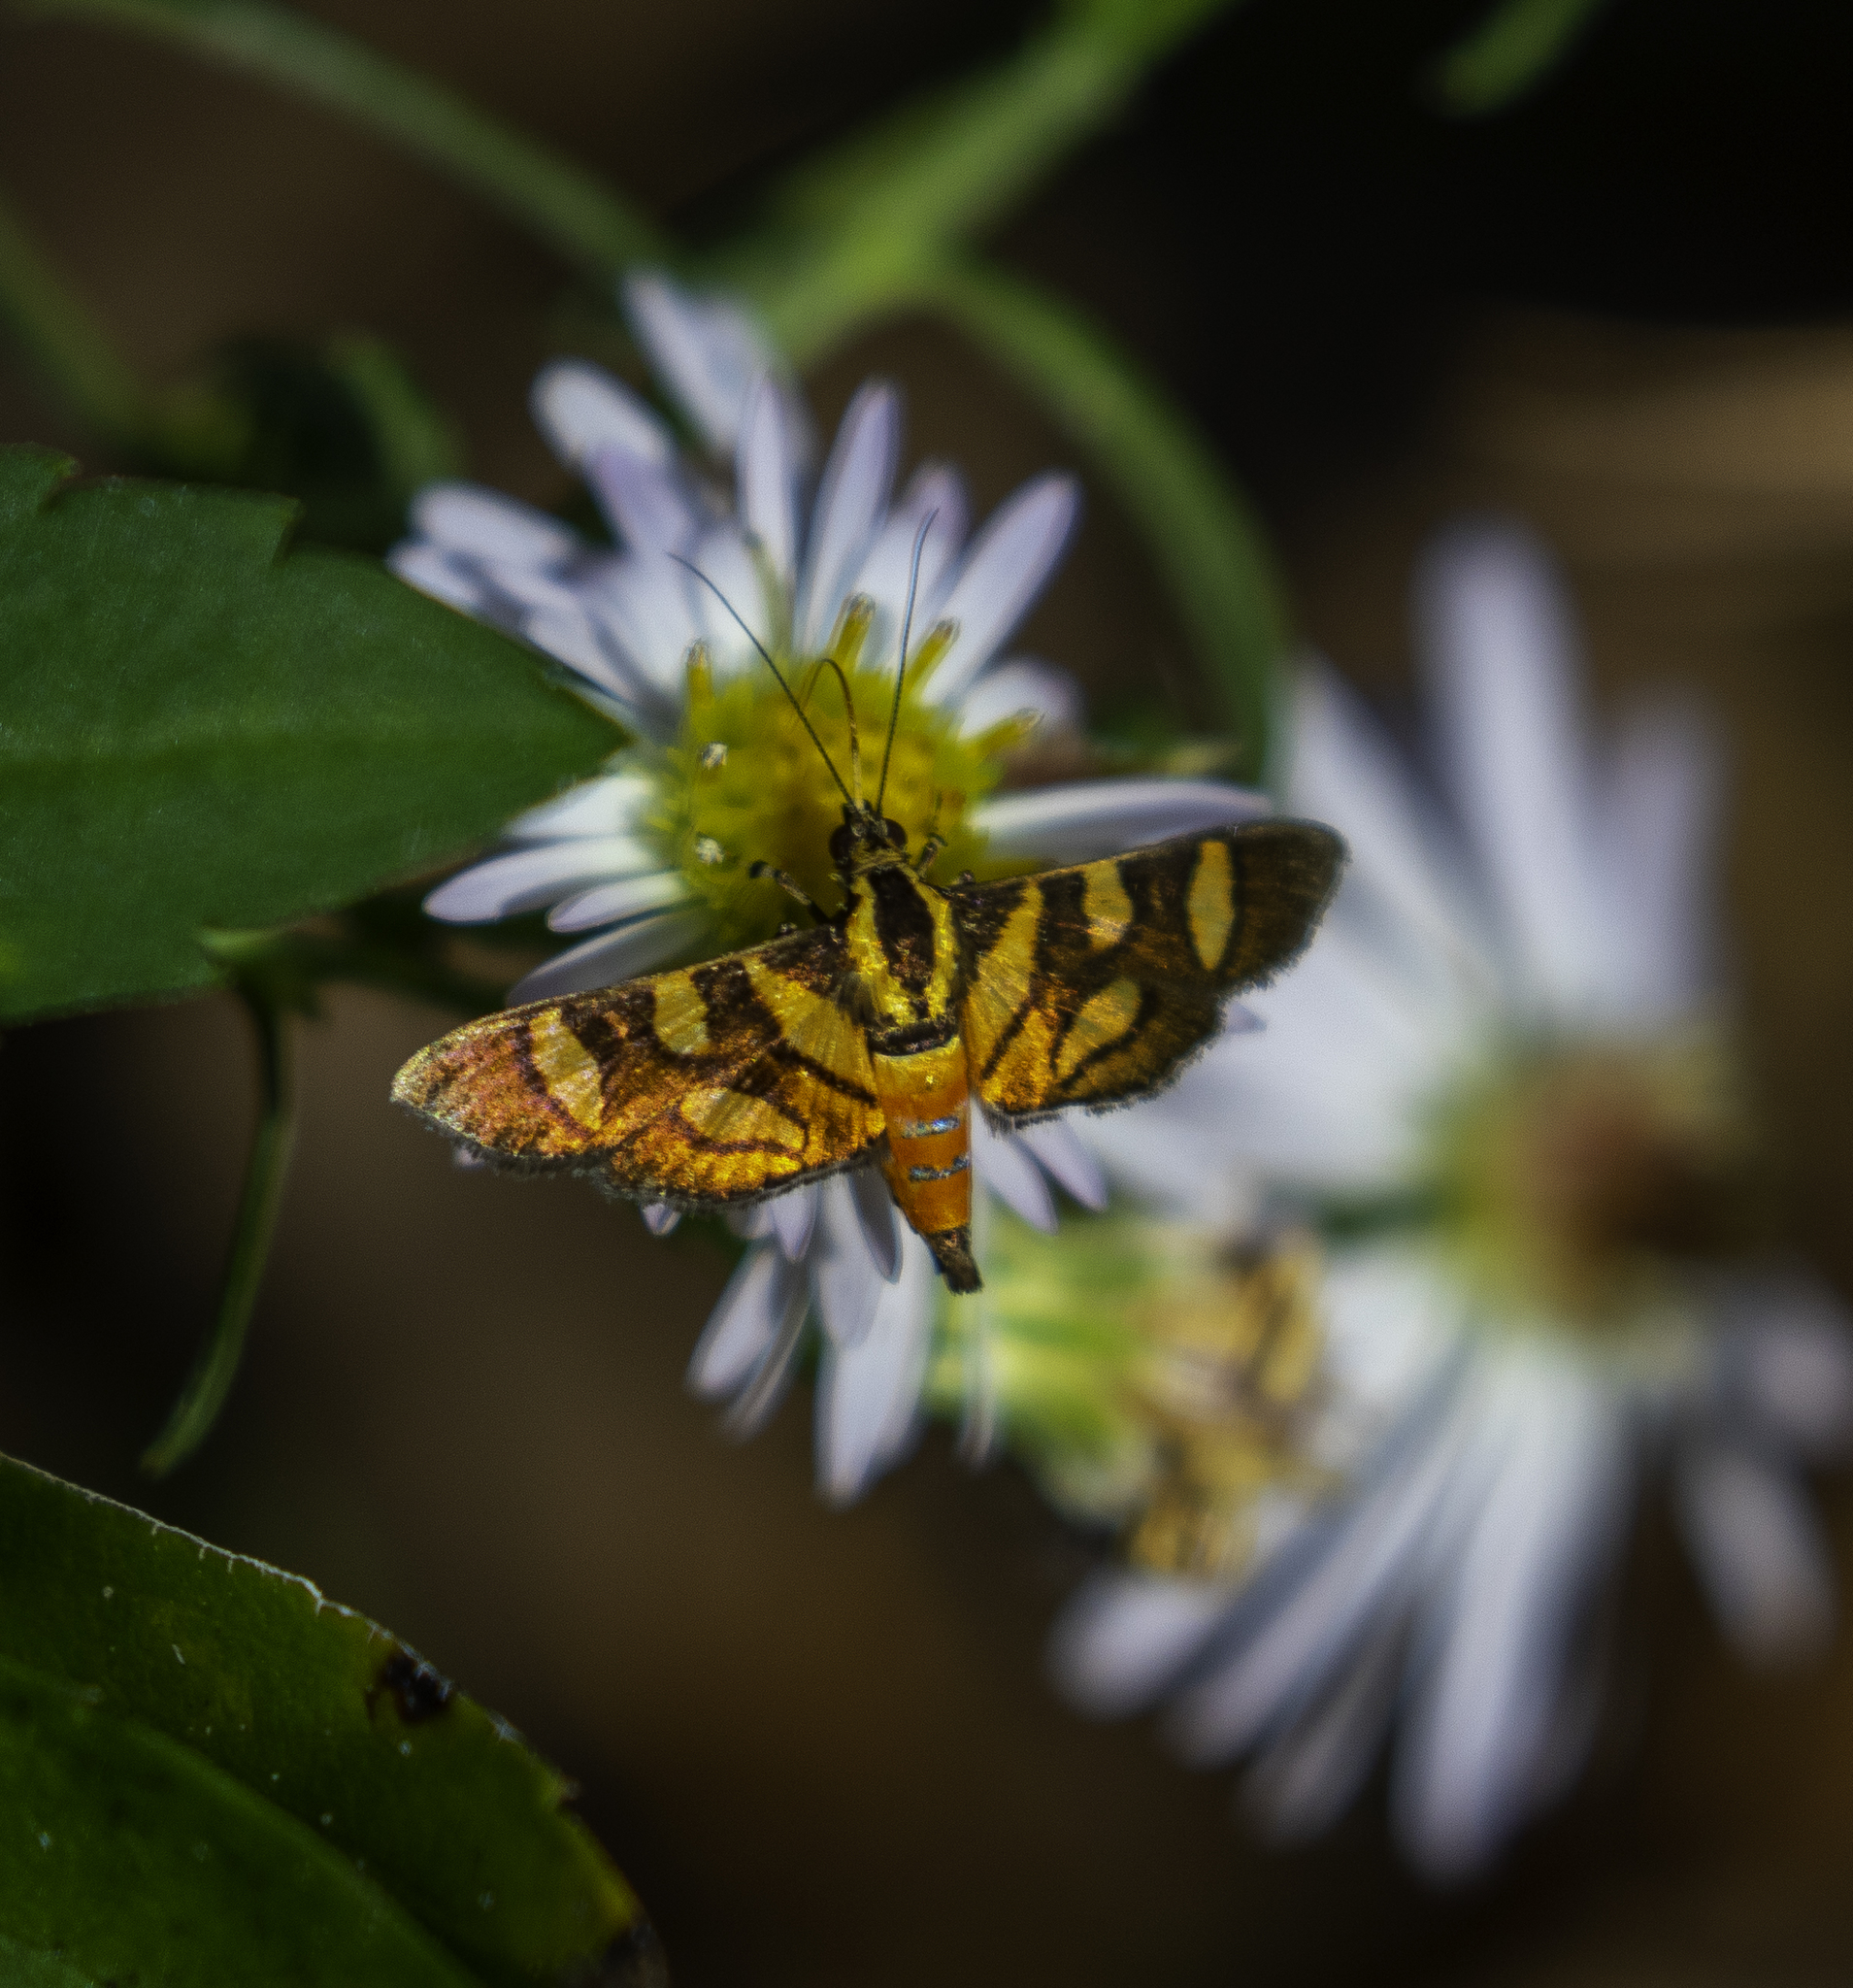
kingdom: Animalia
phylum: Arthropoda
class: Insecta
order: Lepidoptera
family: Crambidae
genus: Syngamia
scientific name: Syngamia florella
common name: Orange-spotted flower moth
